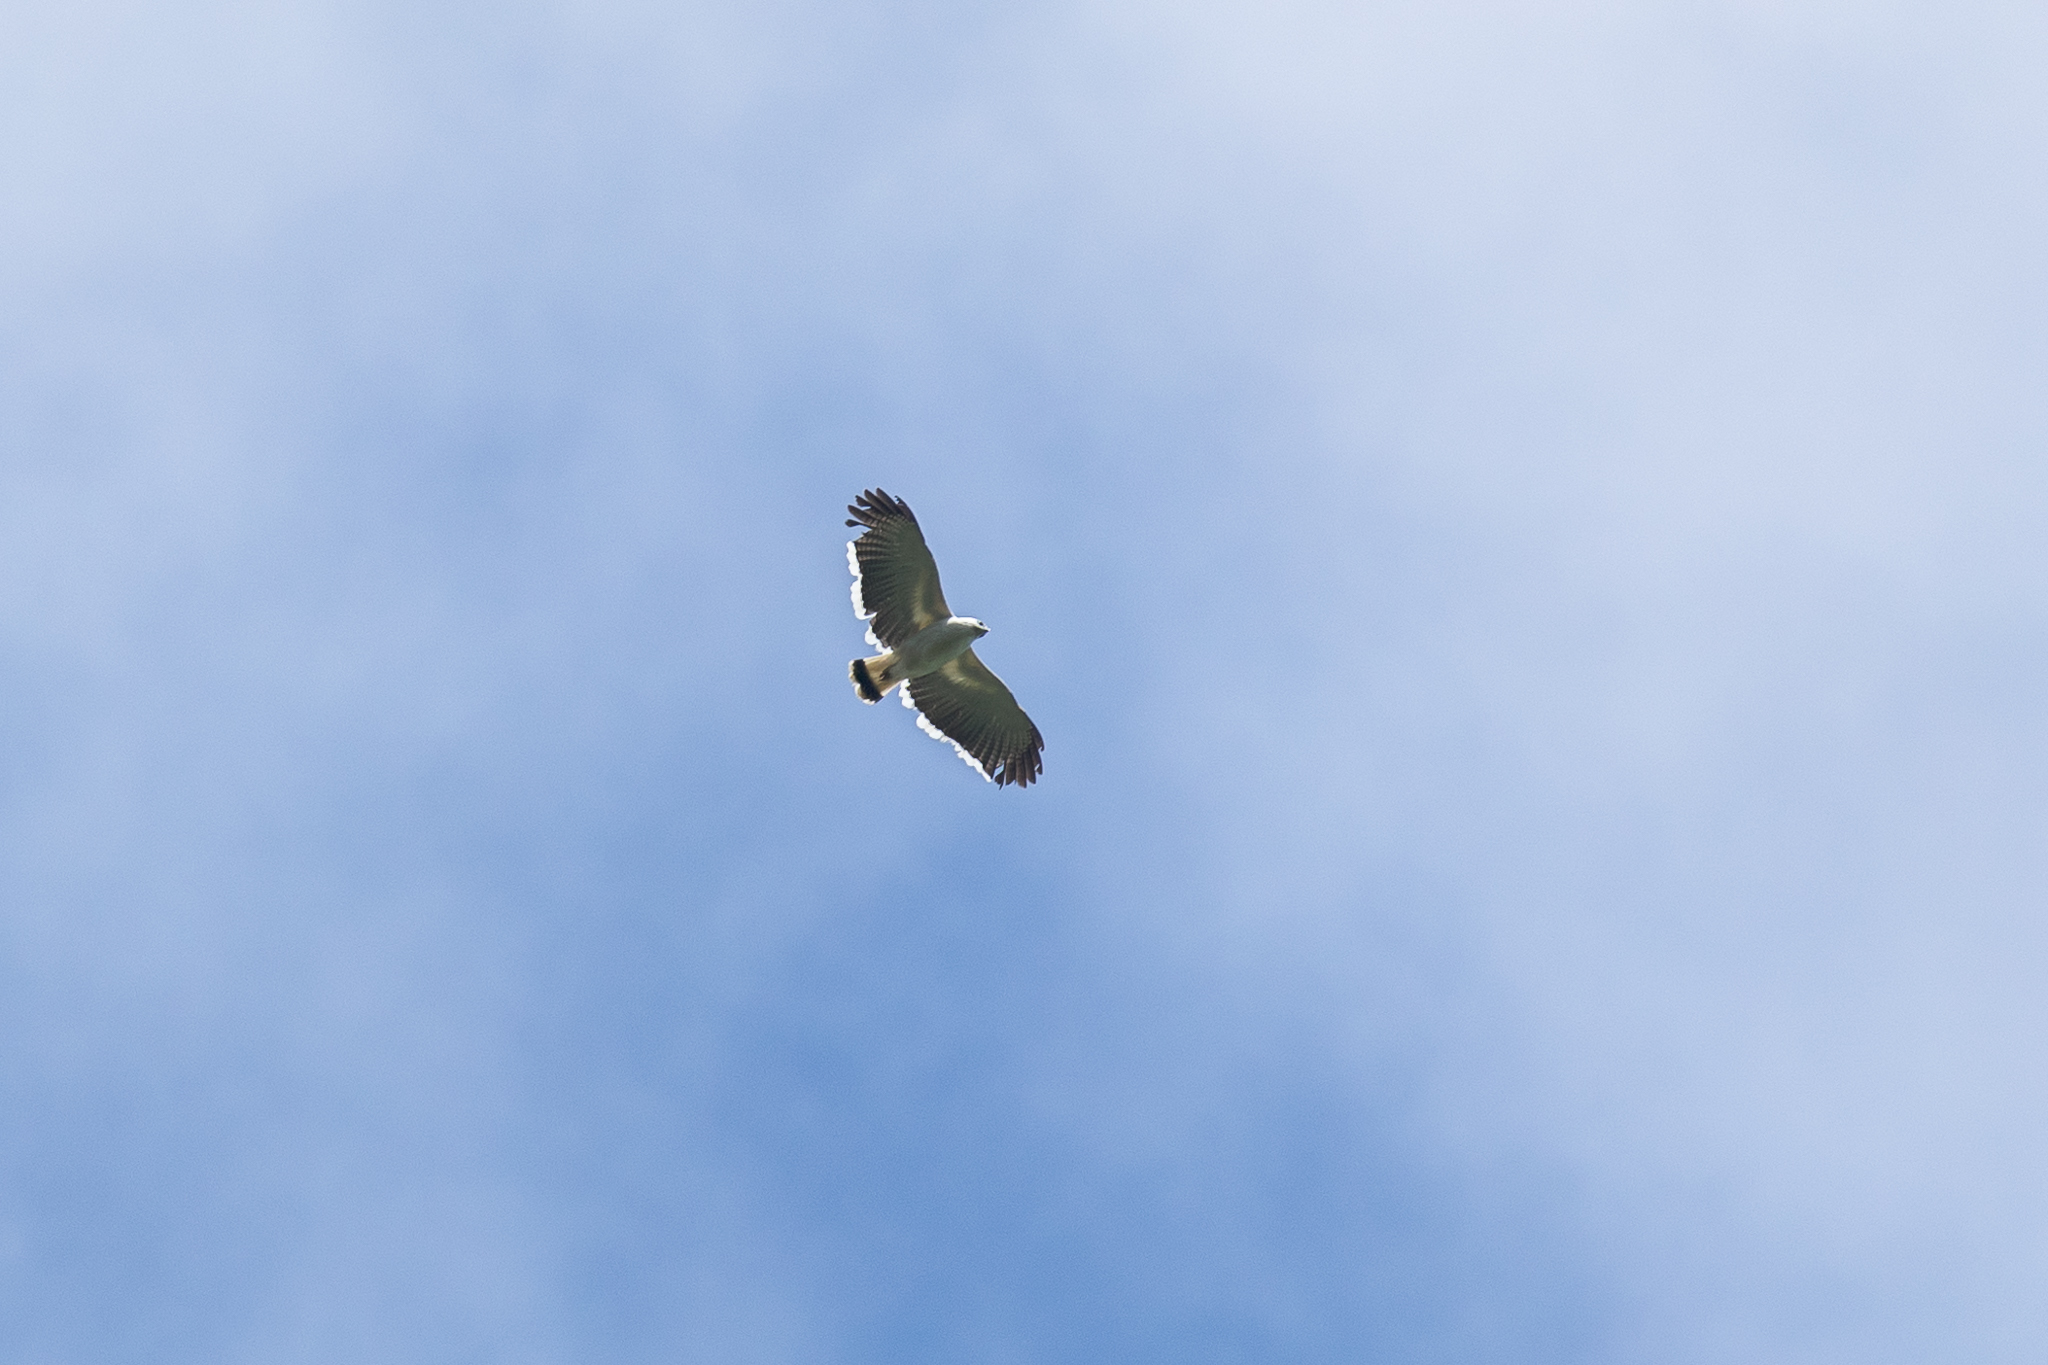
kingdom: Animalia
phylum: Chordata
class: Aves
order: Accipitriformes
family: Accipitridae
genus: Leucopternis
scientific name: Leucopternis albicollis
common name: White hawk
